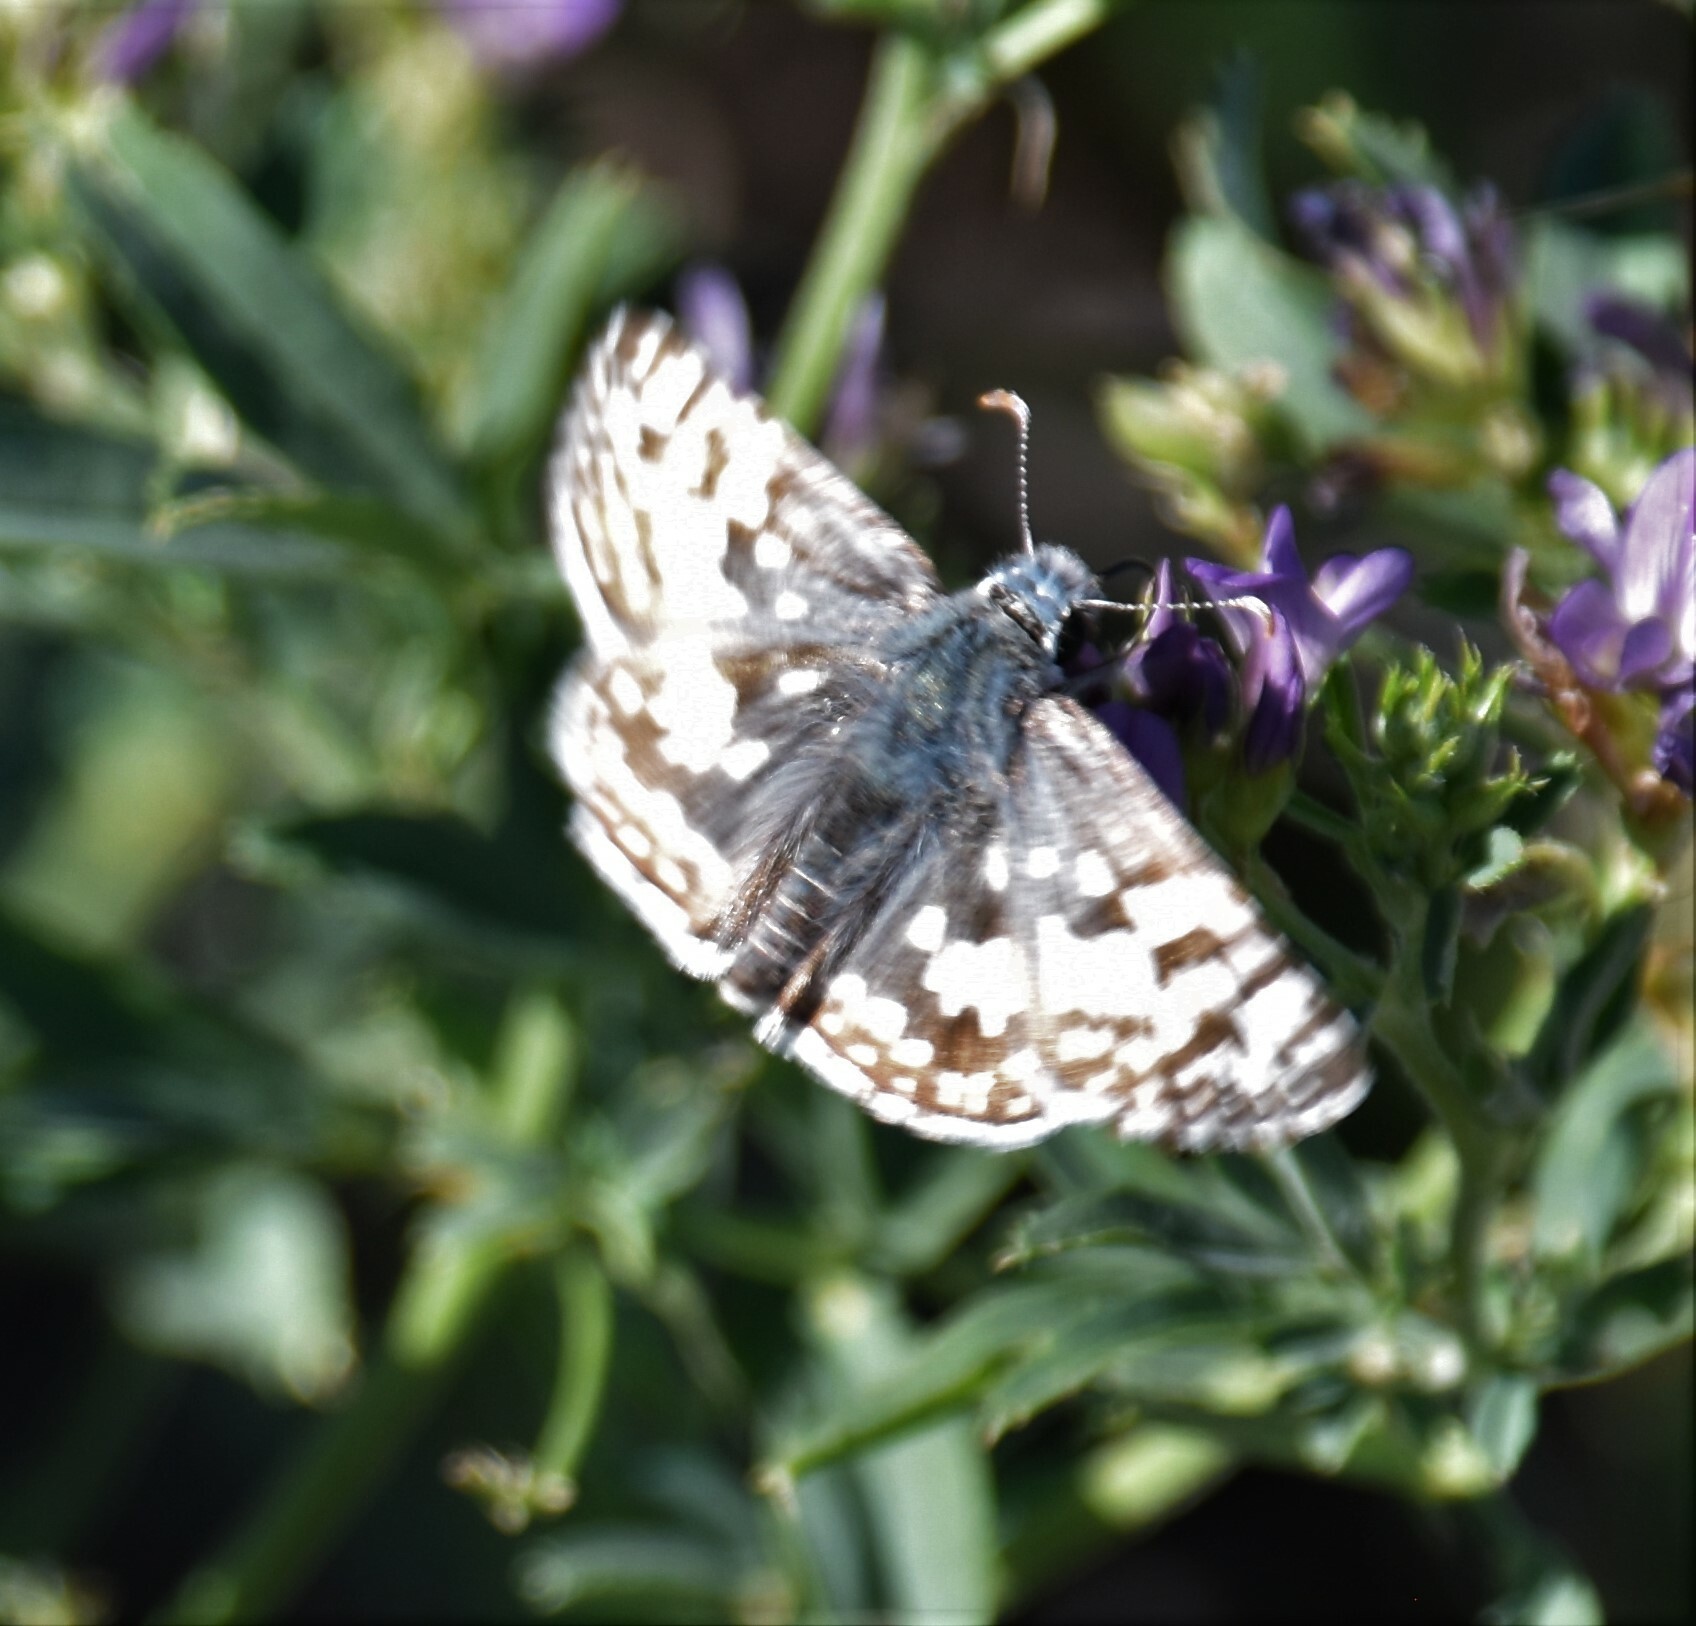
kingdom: Animalia
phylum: Arthropoda
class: Insecta
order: Lepidoptera
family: Hesperiidae
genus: Burnsius
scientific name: Burnsius communis
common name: Common checkered-skipper
